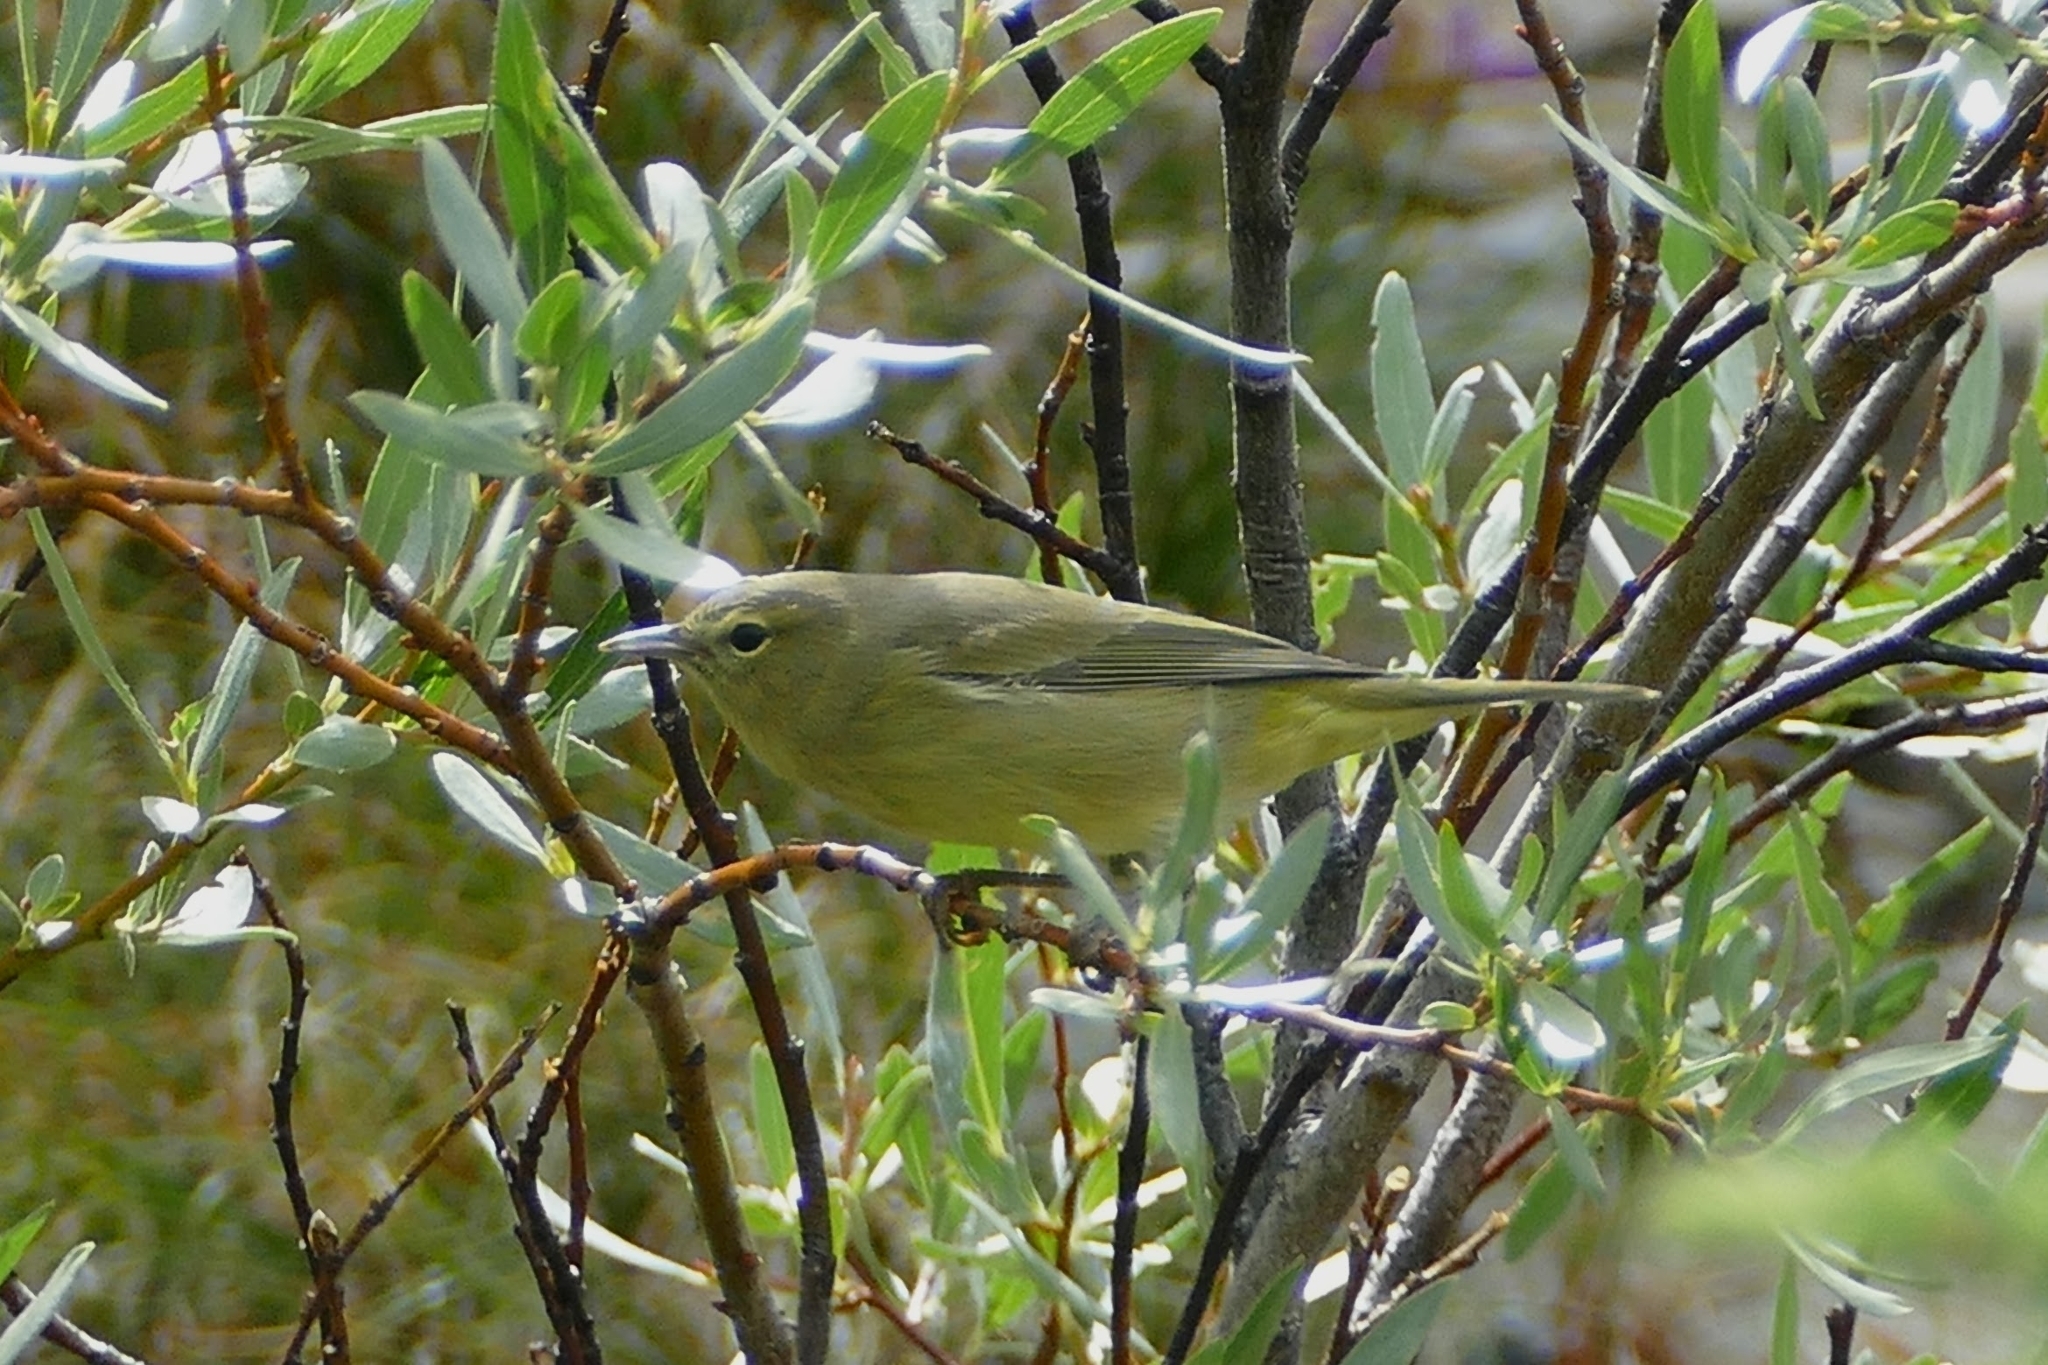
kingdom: Animalia
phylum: Chordata
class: Aves
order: Passeriformes
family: Parulidae
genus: Leiothlypis
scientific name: Leiothlypis celata
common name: Orange-crowned warbler
